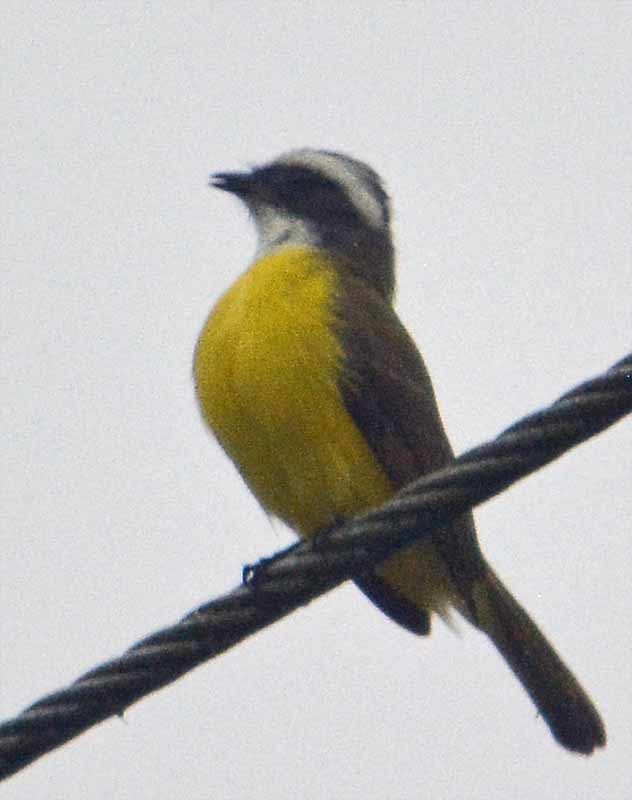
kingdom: Animalia
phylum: Chordata
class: Aves
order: Passeriformes
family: Tyrannidae
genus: Myiozetetes
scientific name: Myiozetetes similis
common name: Social flycatcher
